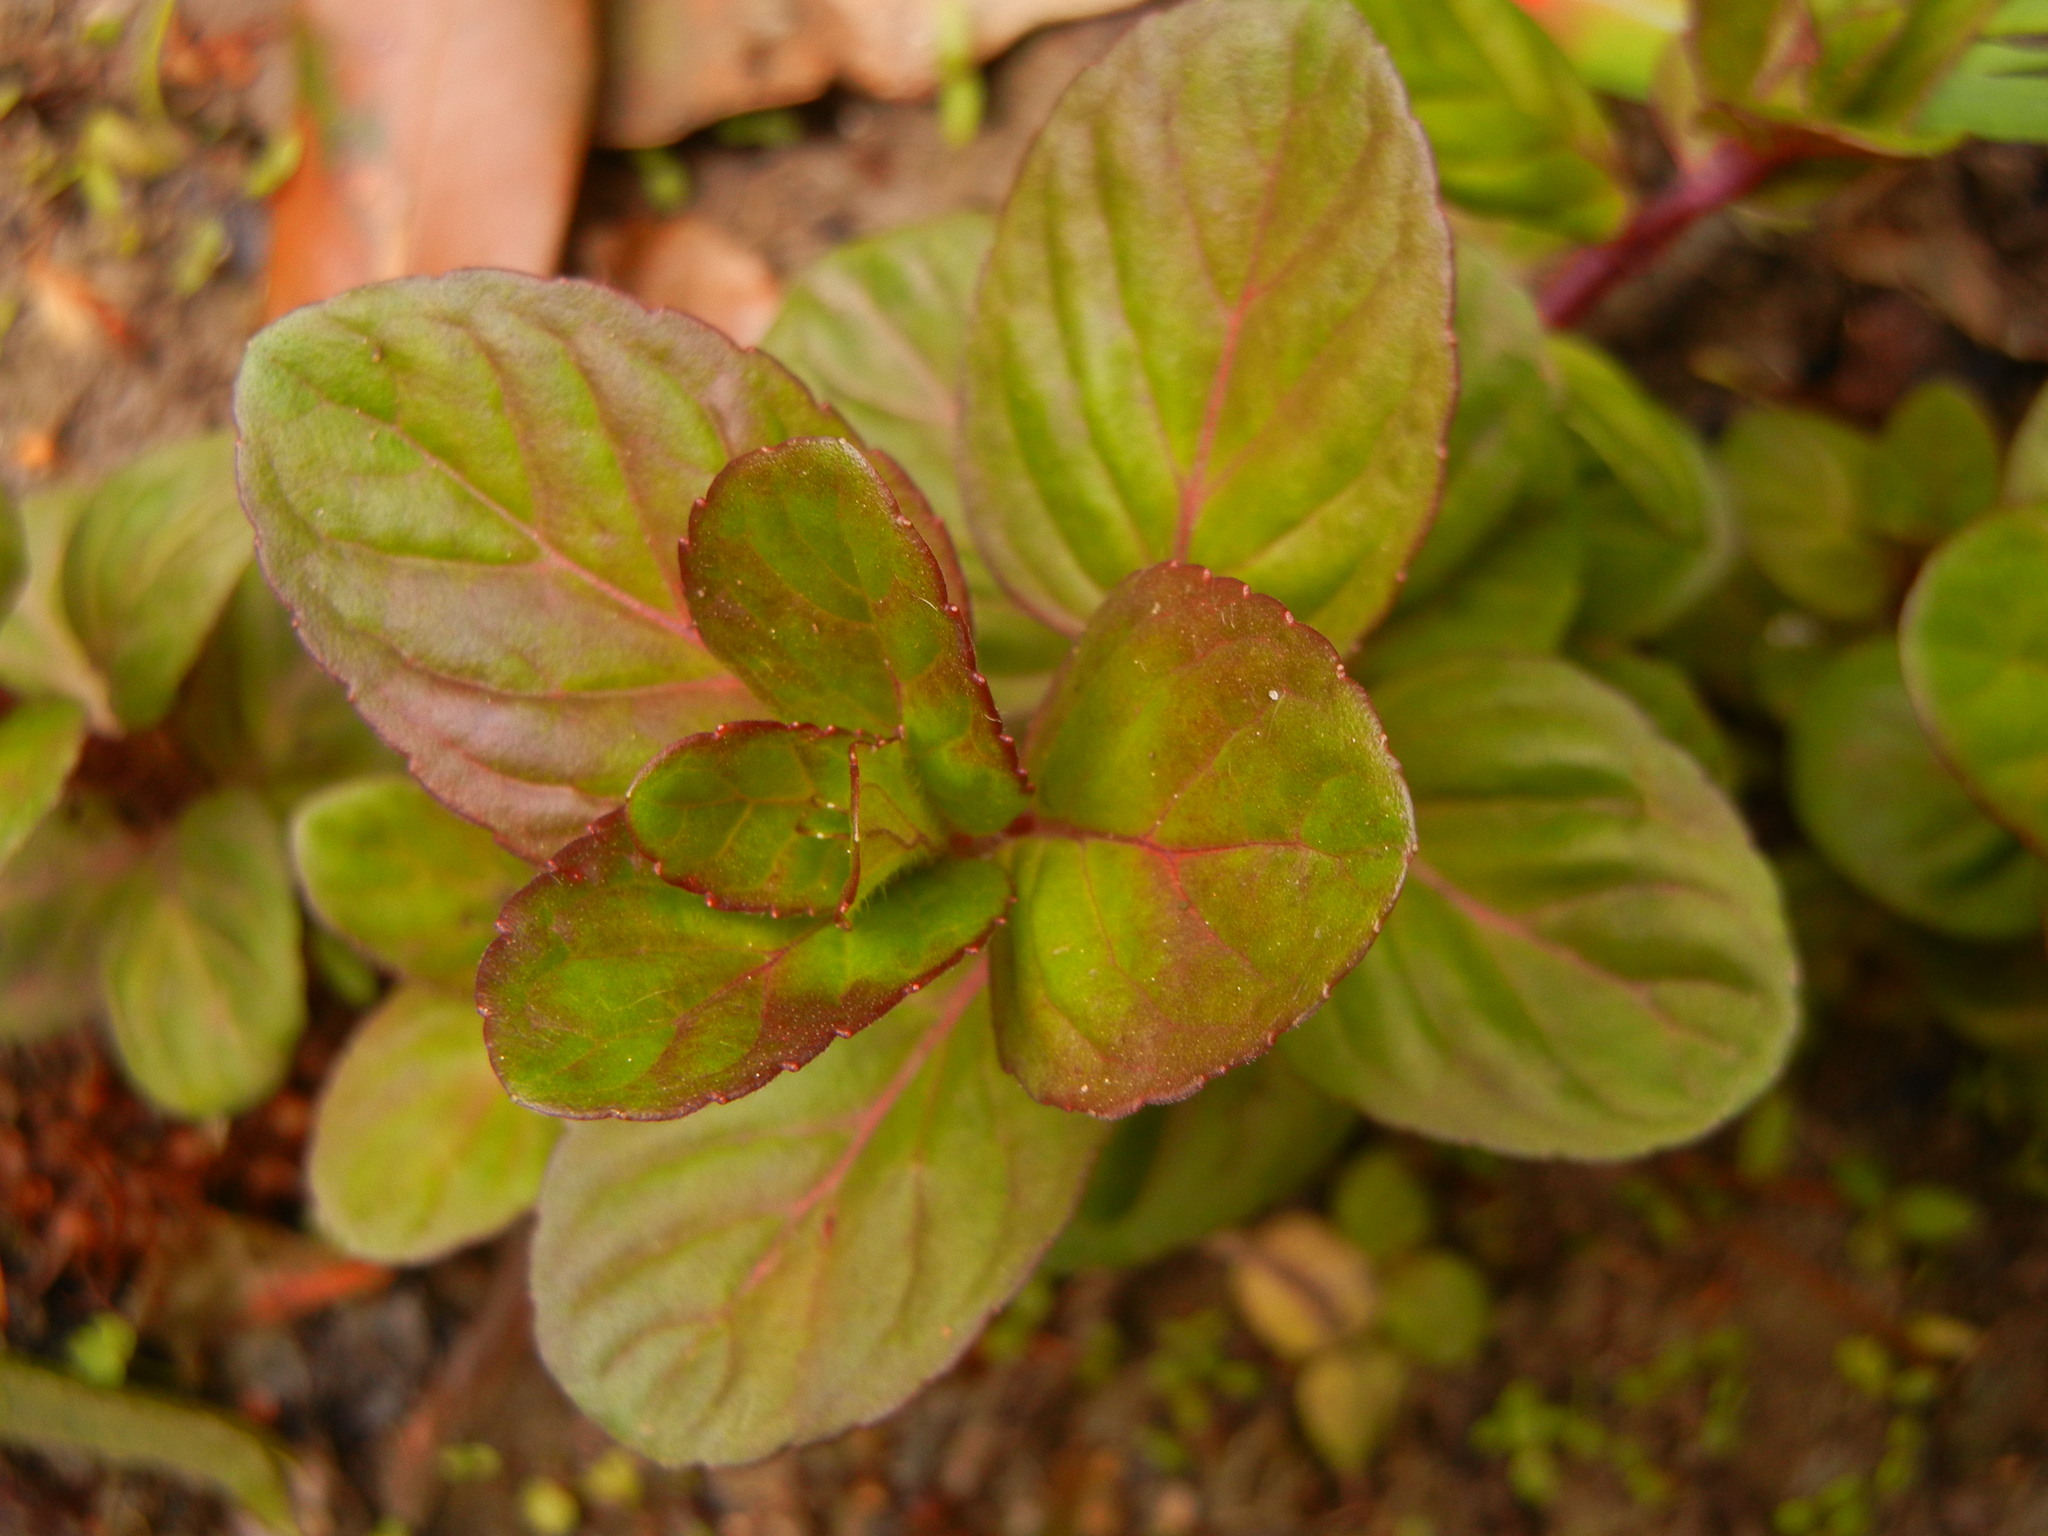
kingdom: Plantae
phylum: Tracheophyta
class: Magnoliopsida
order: Lamiales
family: Lamiaceae
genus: Mentha
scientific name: Mentha aquatica
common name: Water mint
